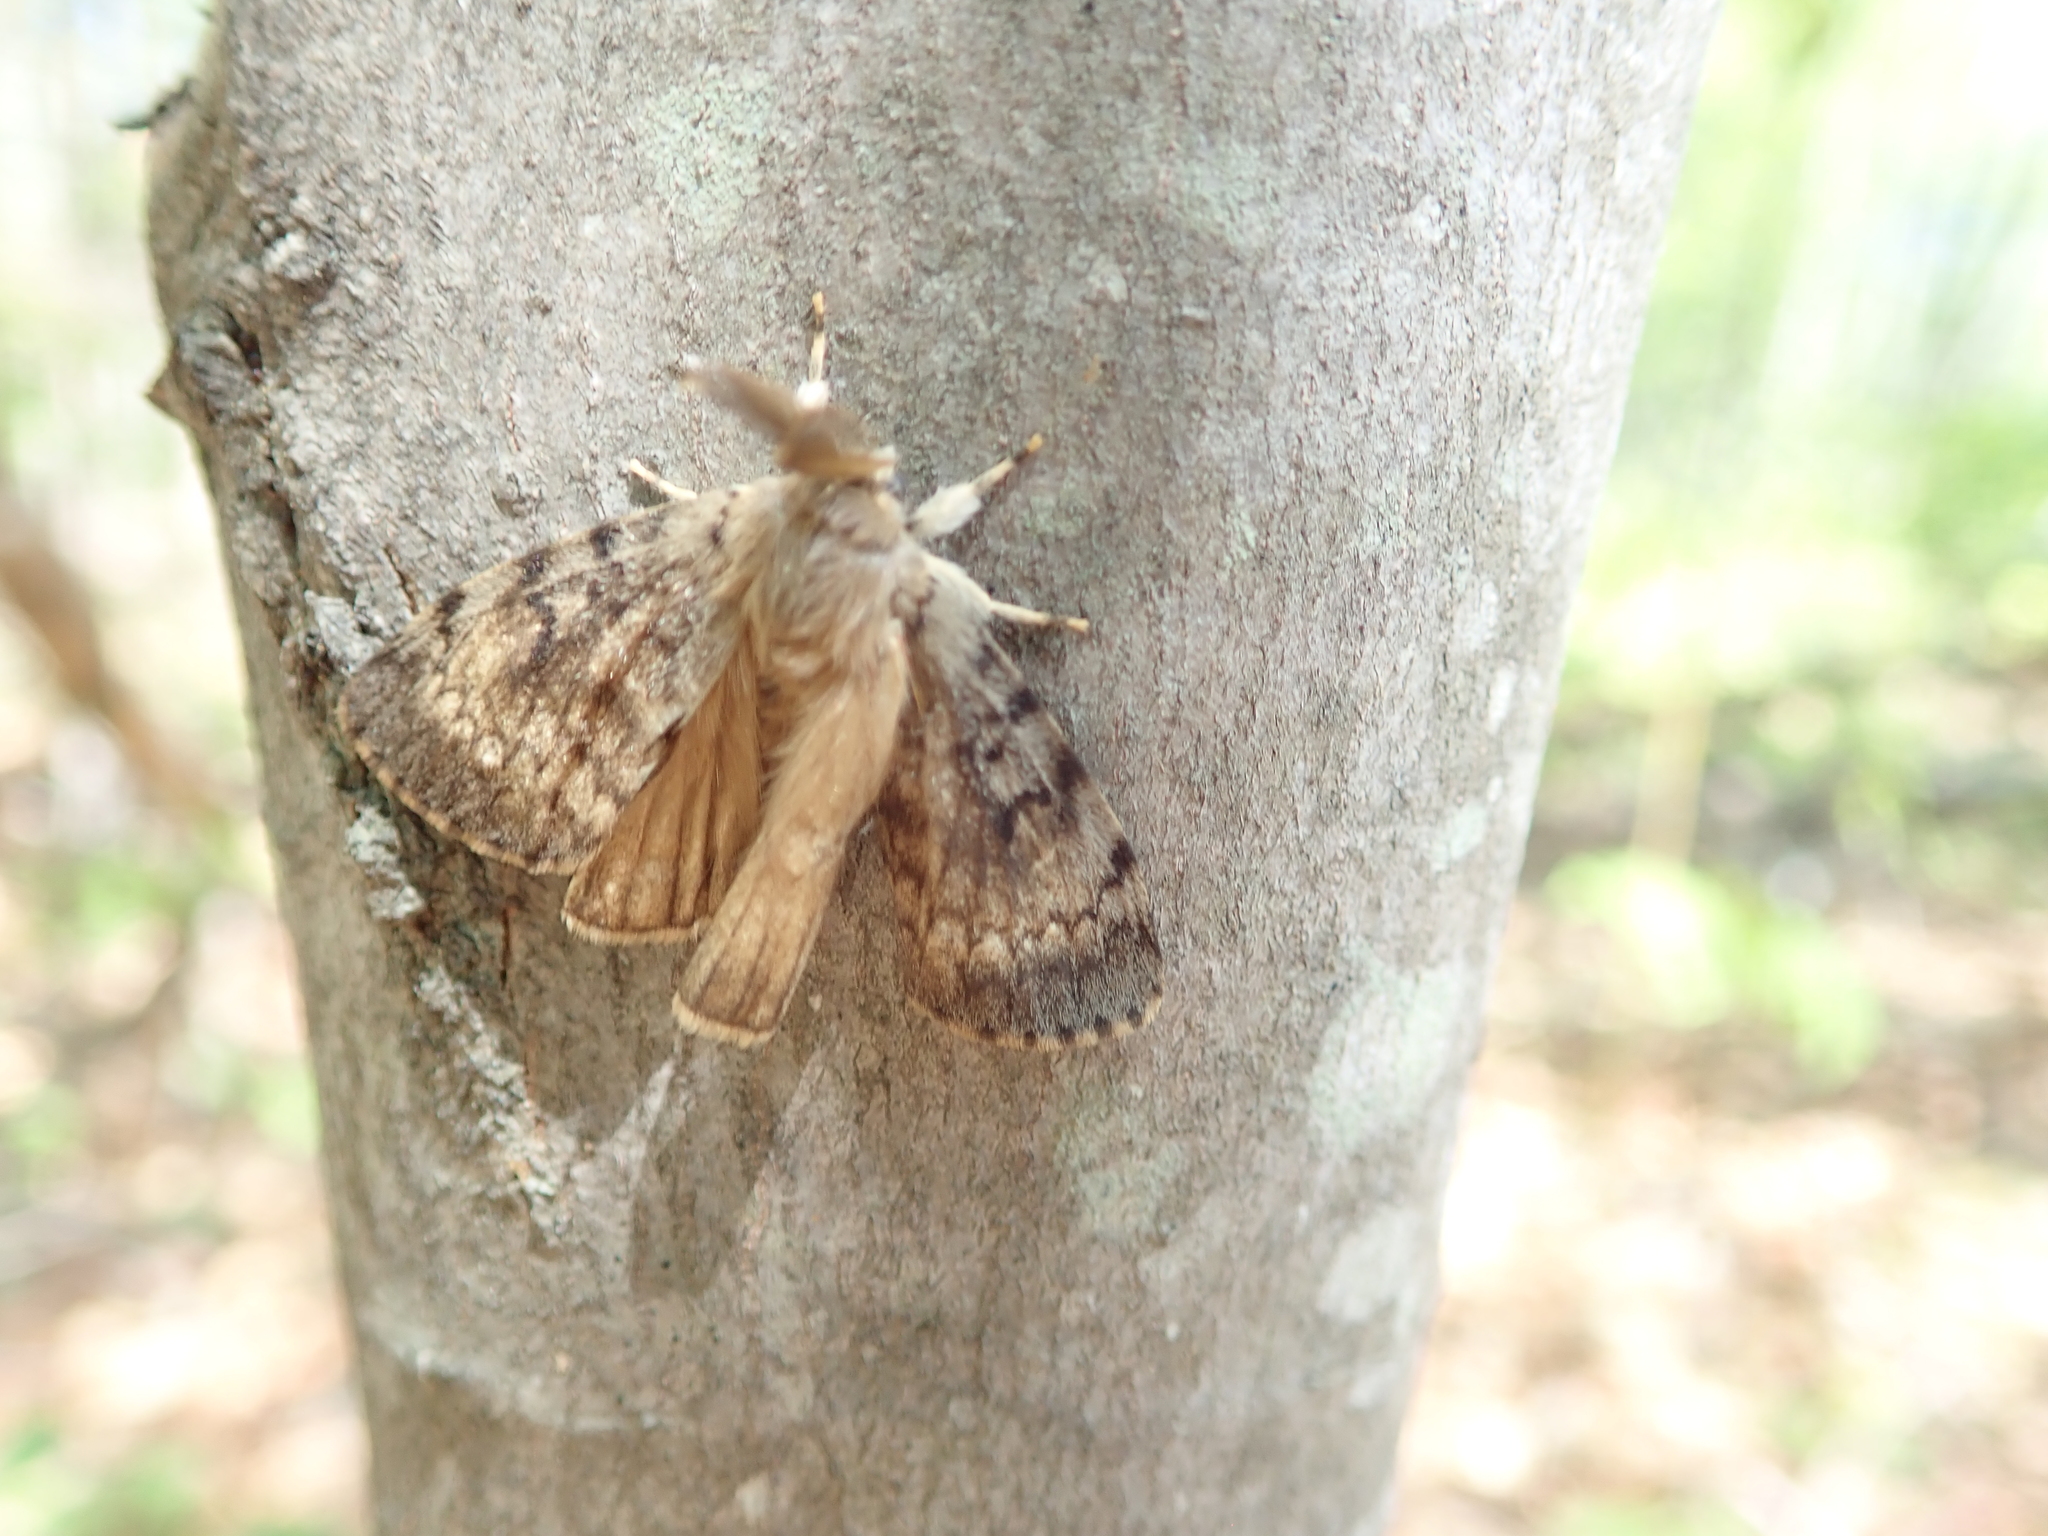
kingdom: Animalia
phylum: Arthropoda
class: Insecta
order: Lepidoptera
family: Erebidae
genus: Lymantria
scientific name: Lymantria dispar
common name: Gypsy moth
